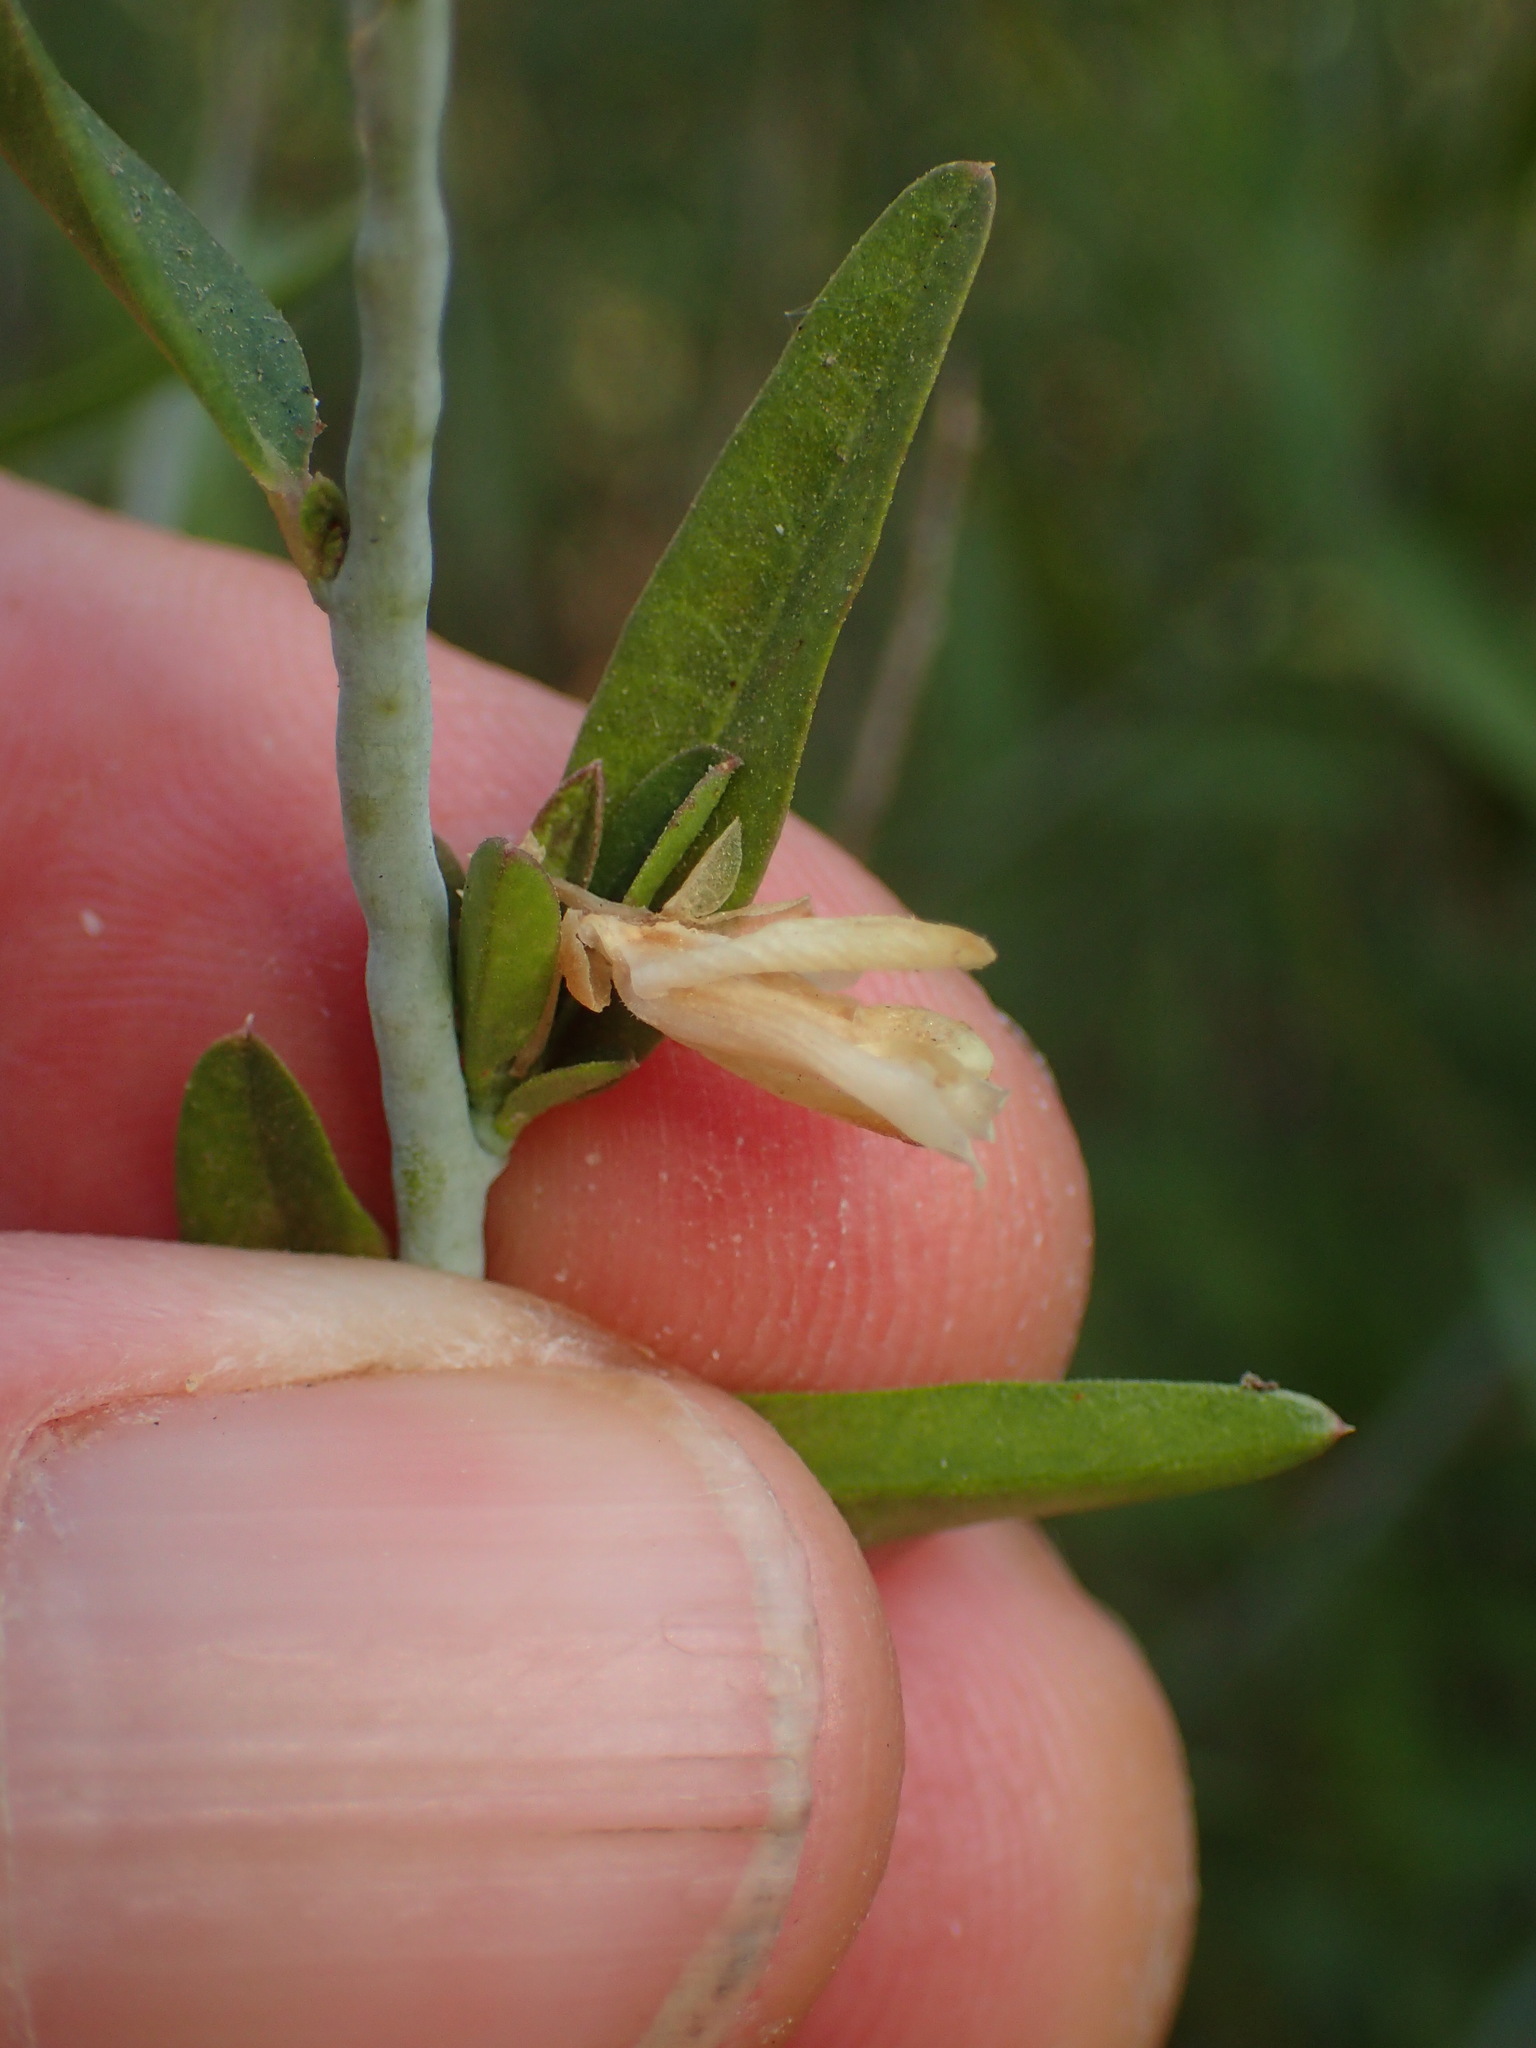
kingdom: Plantae
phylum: Tracheophyta
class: Magnoliopsida
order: Fabales
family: Polygalaceae
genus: Rhinotropis
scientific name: Rhinotropis cornuta
